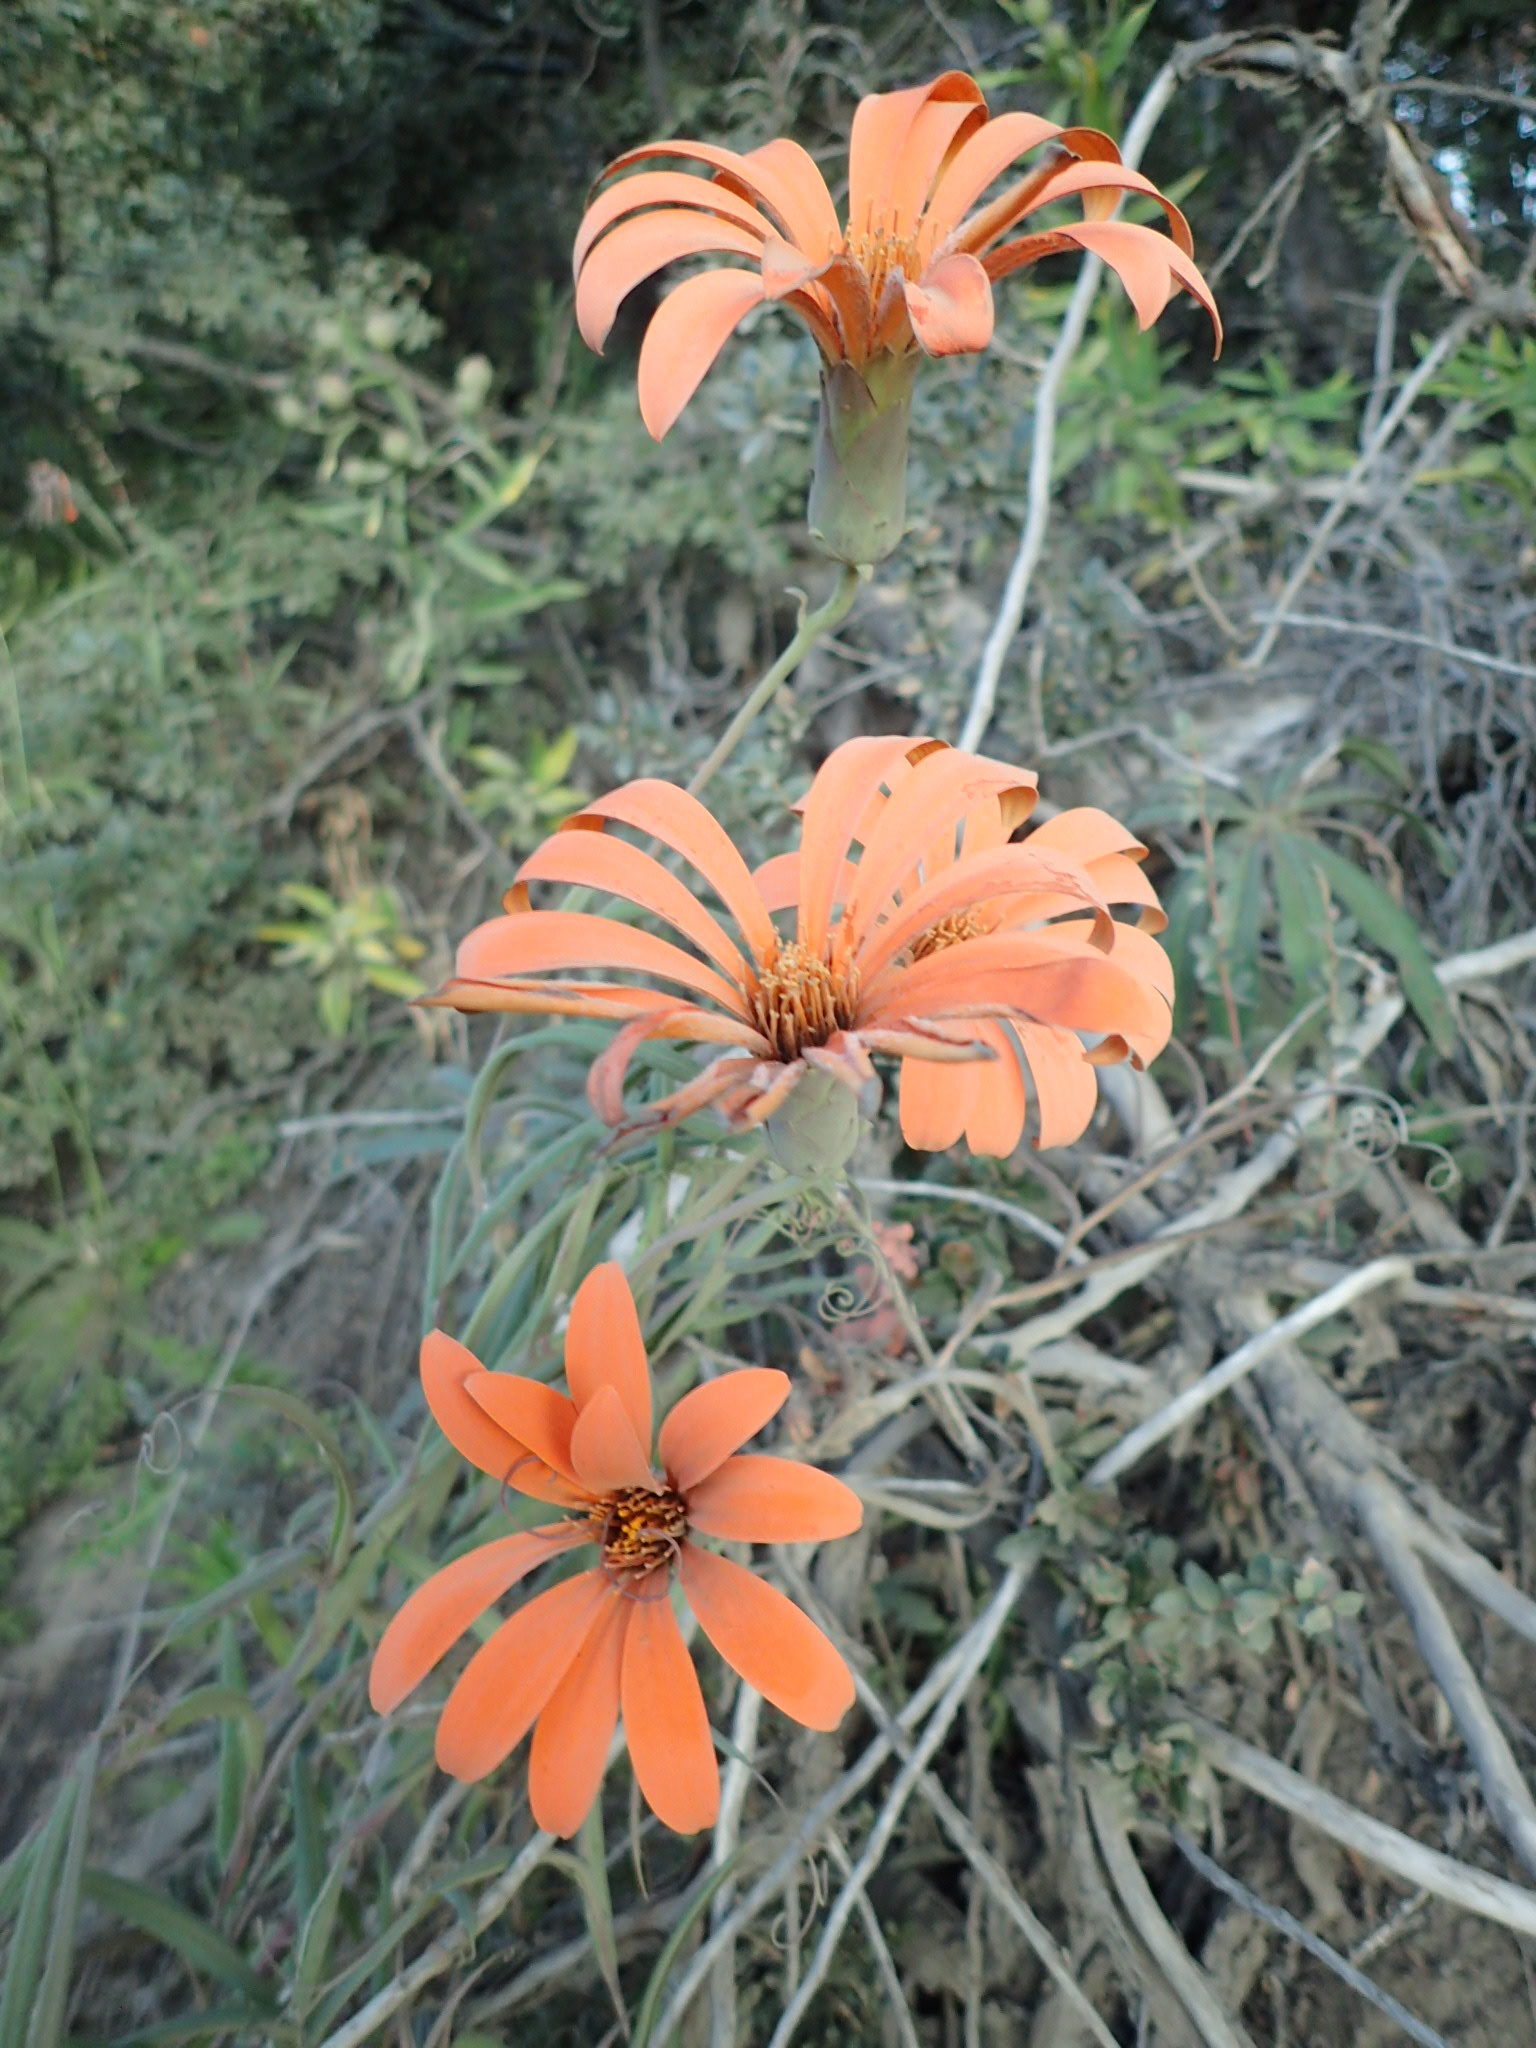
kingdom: Plantae
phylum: Tracheophyta
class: Magnoliopsida
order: Asterales
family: Asteraceae
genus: Mutisia
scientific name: Mutisia decurrens
